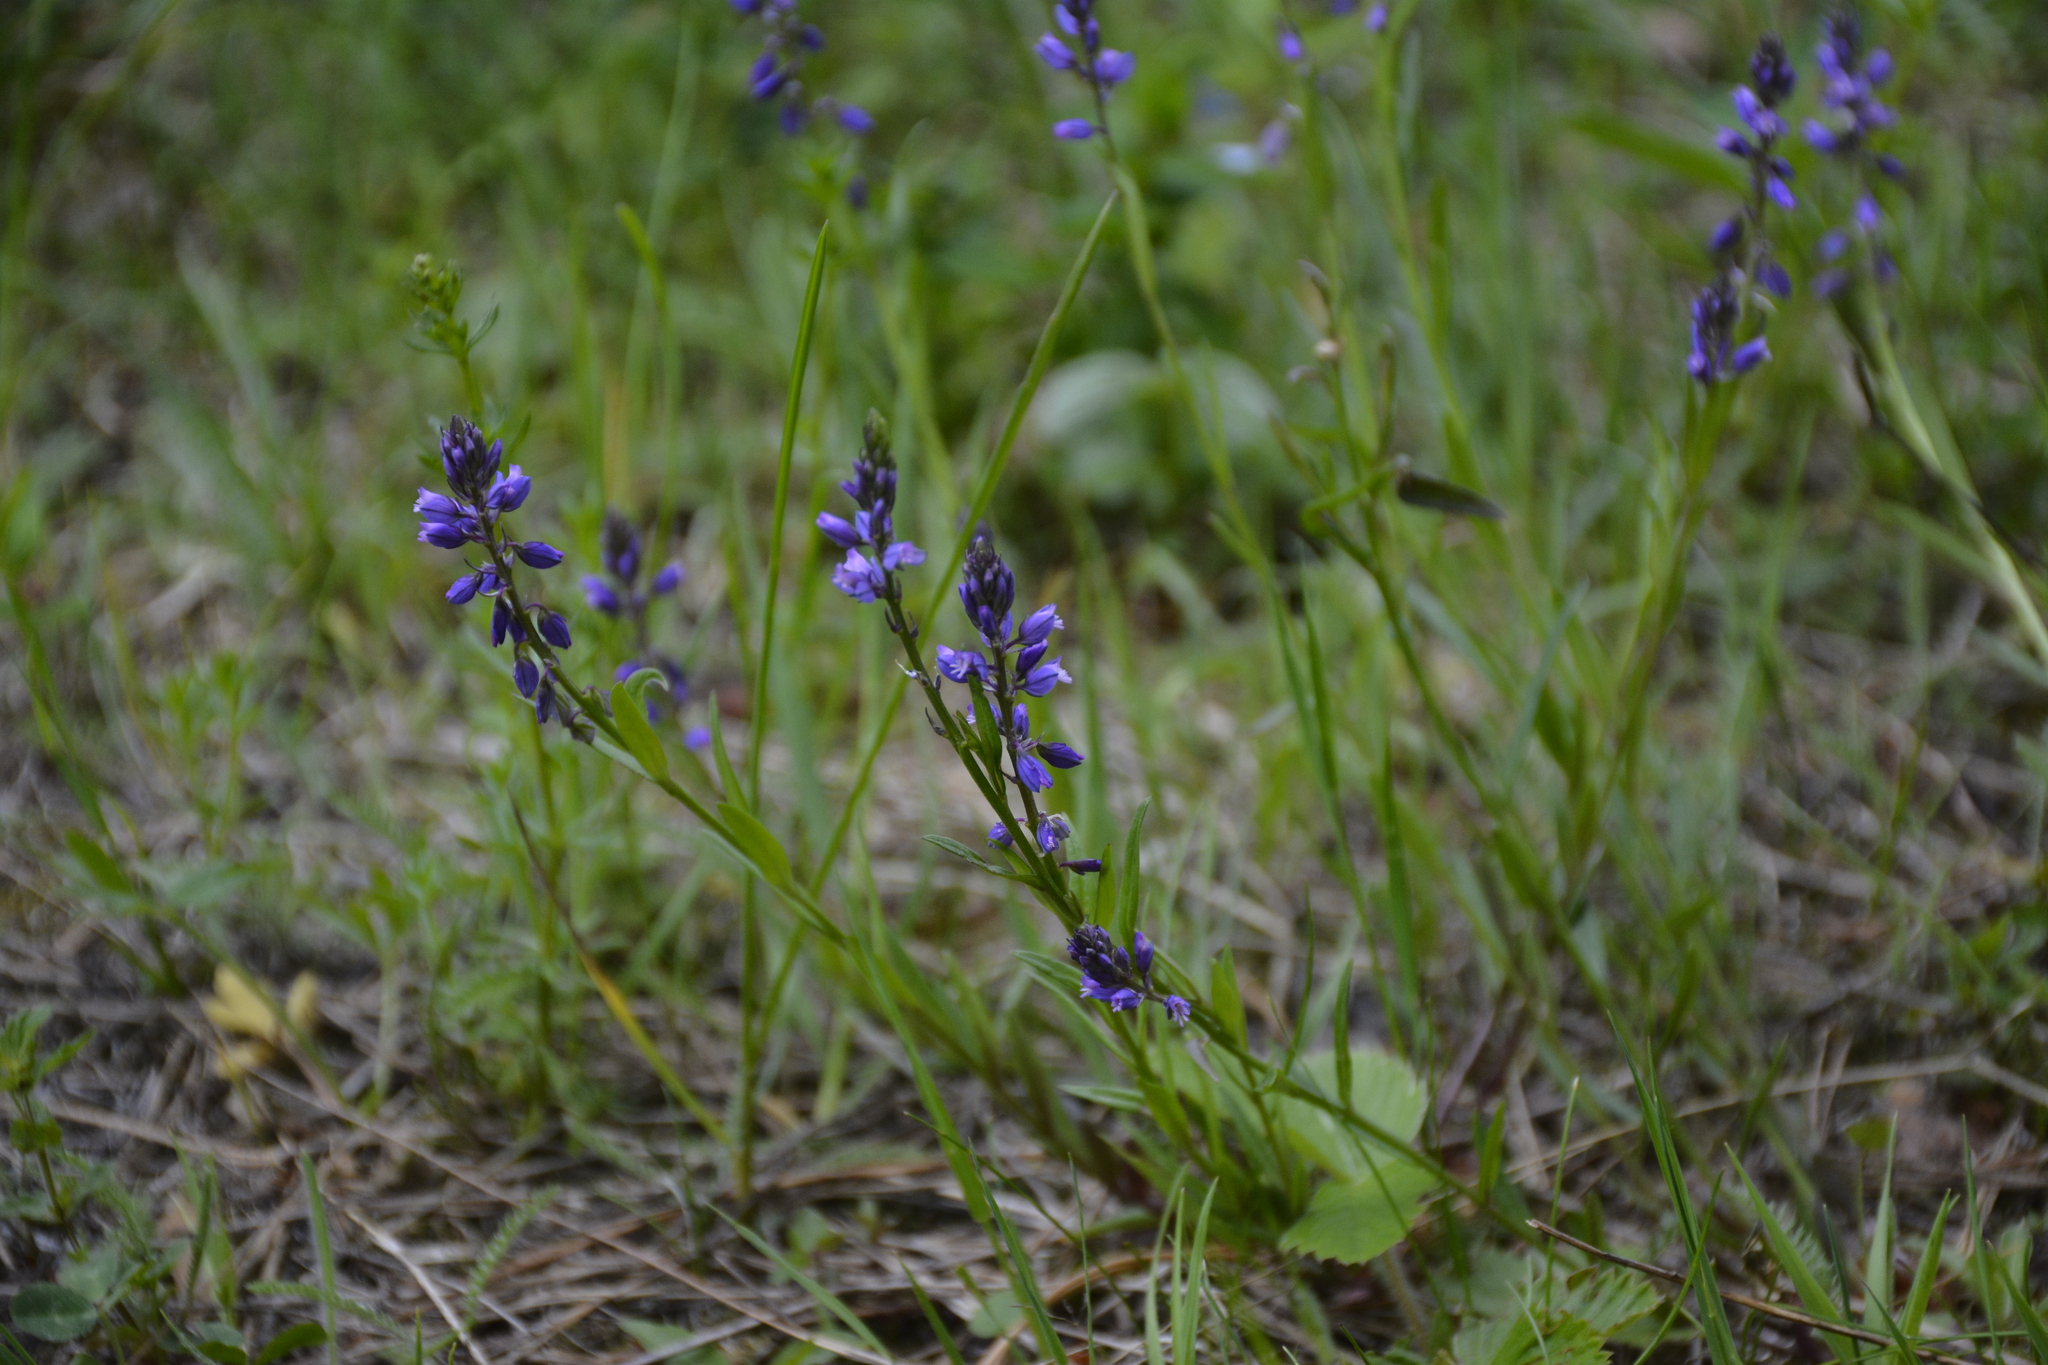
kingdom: Plantae
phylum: Tracheophyta
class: Magnoliopsida
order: Fabales
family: Polygalaceae
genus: Polygala
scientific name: Polygala comosa
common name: Tufted milkwort
